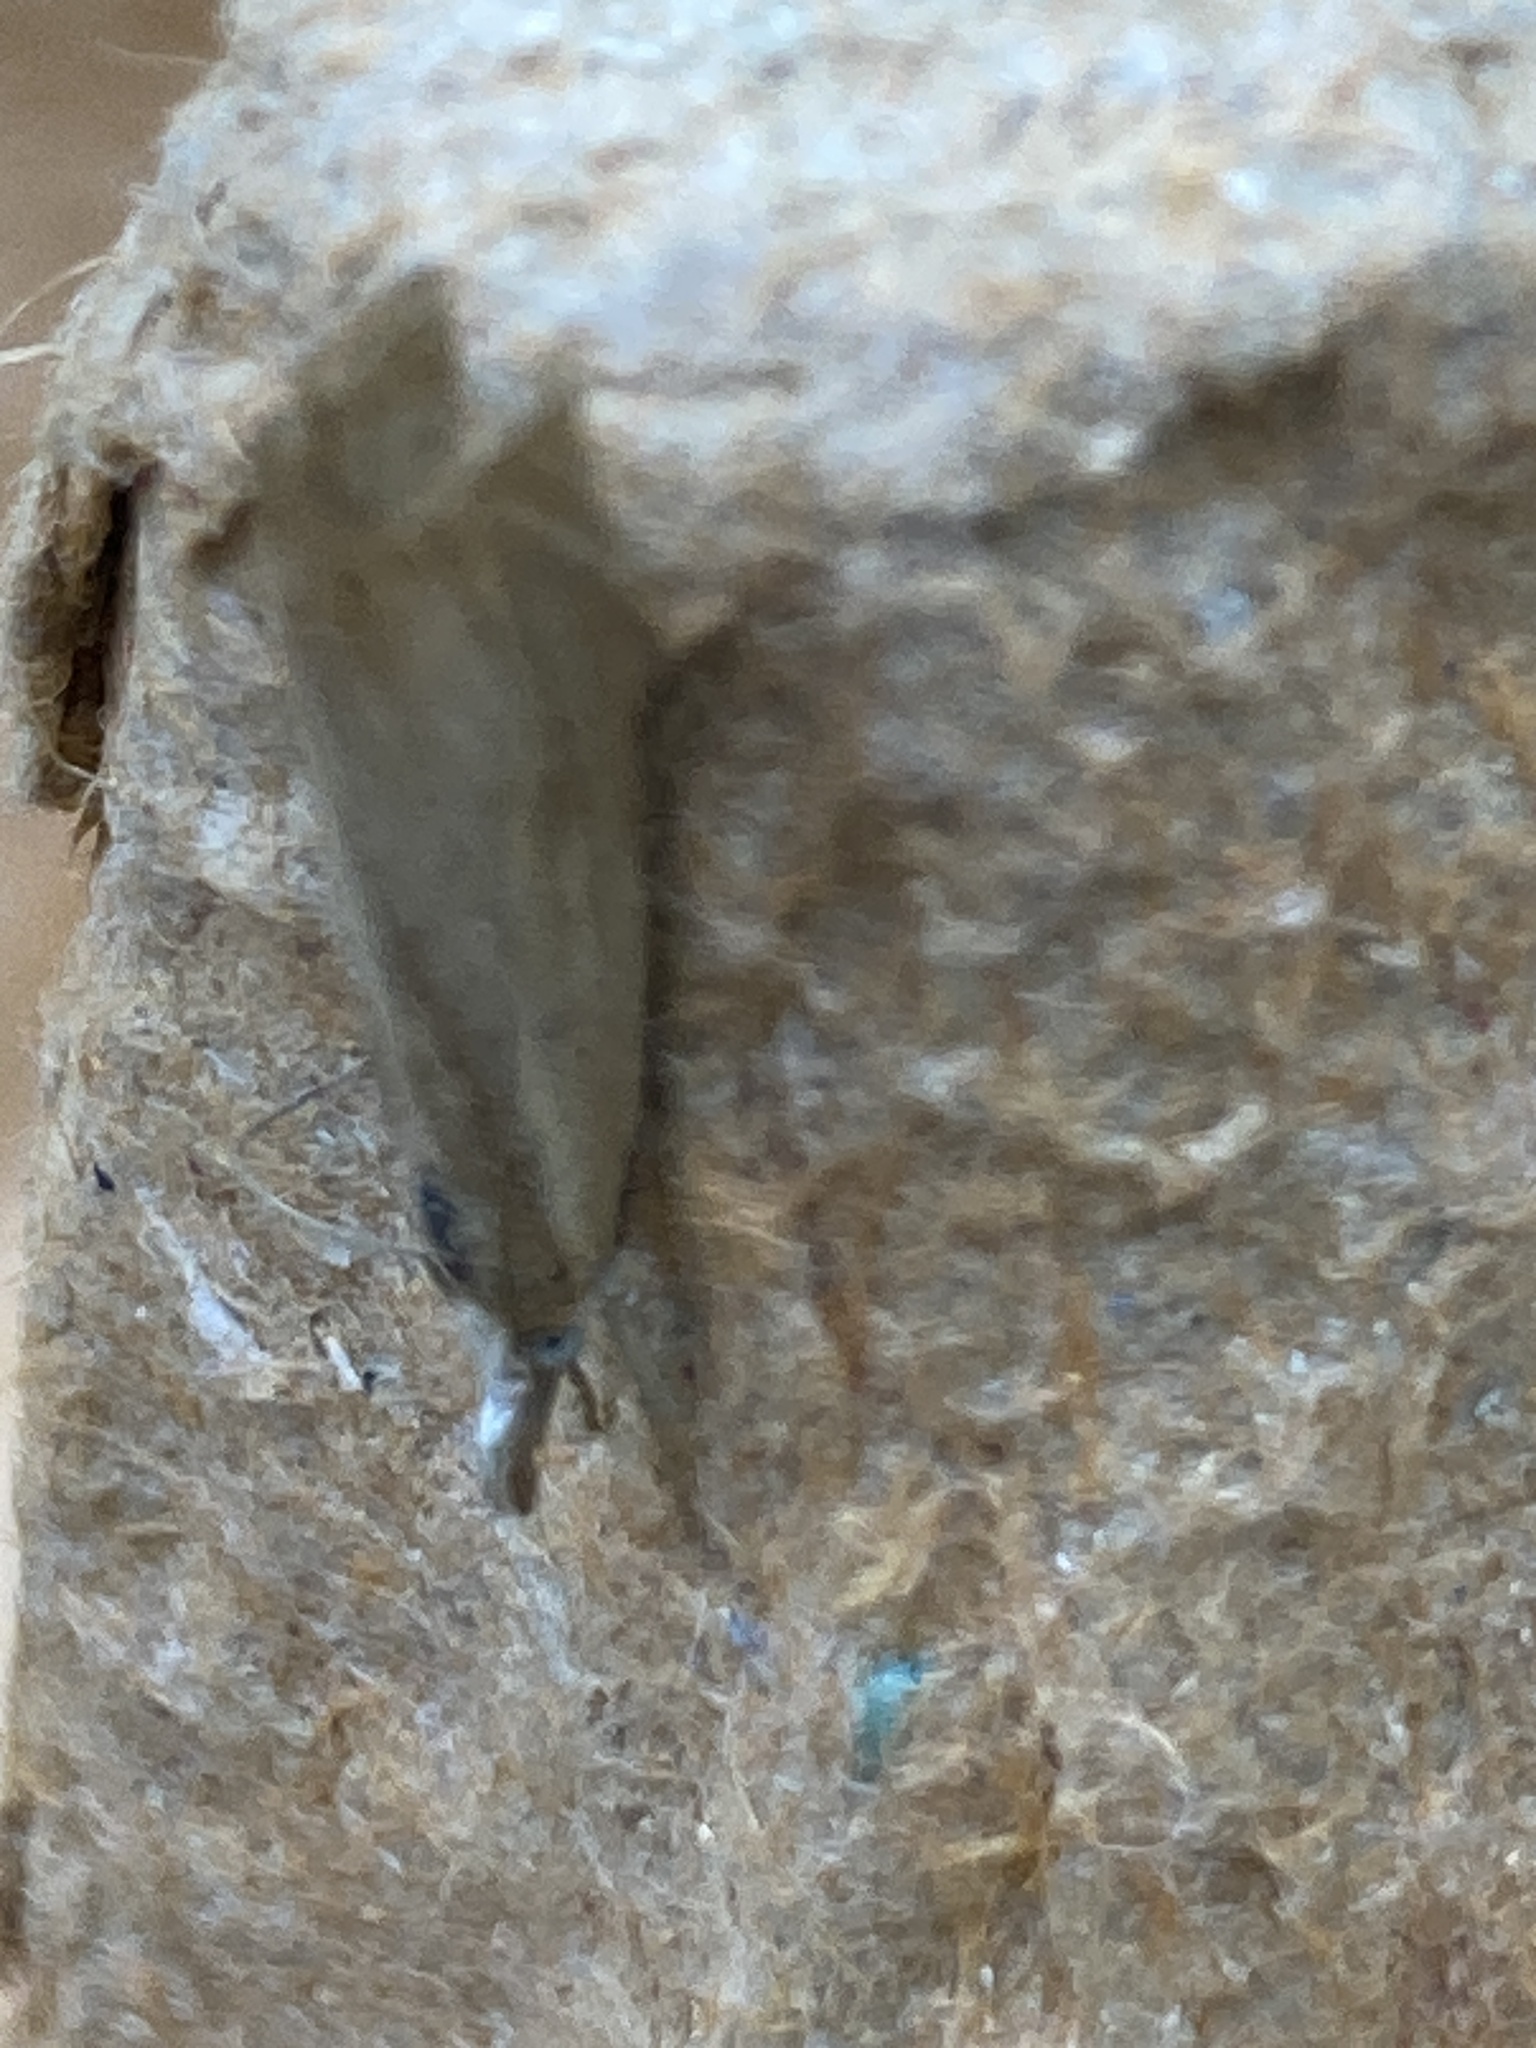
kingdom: Animalia
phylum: Arthropoda
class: Insecta
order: Lepidoptera
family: Crambidae
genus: Chrysoteuchia
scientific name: Chrysoteuchia culmella
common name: Garden grass-veneer
